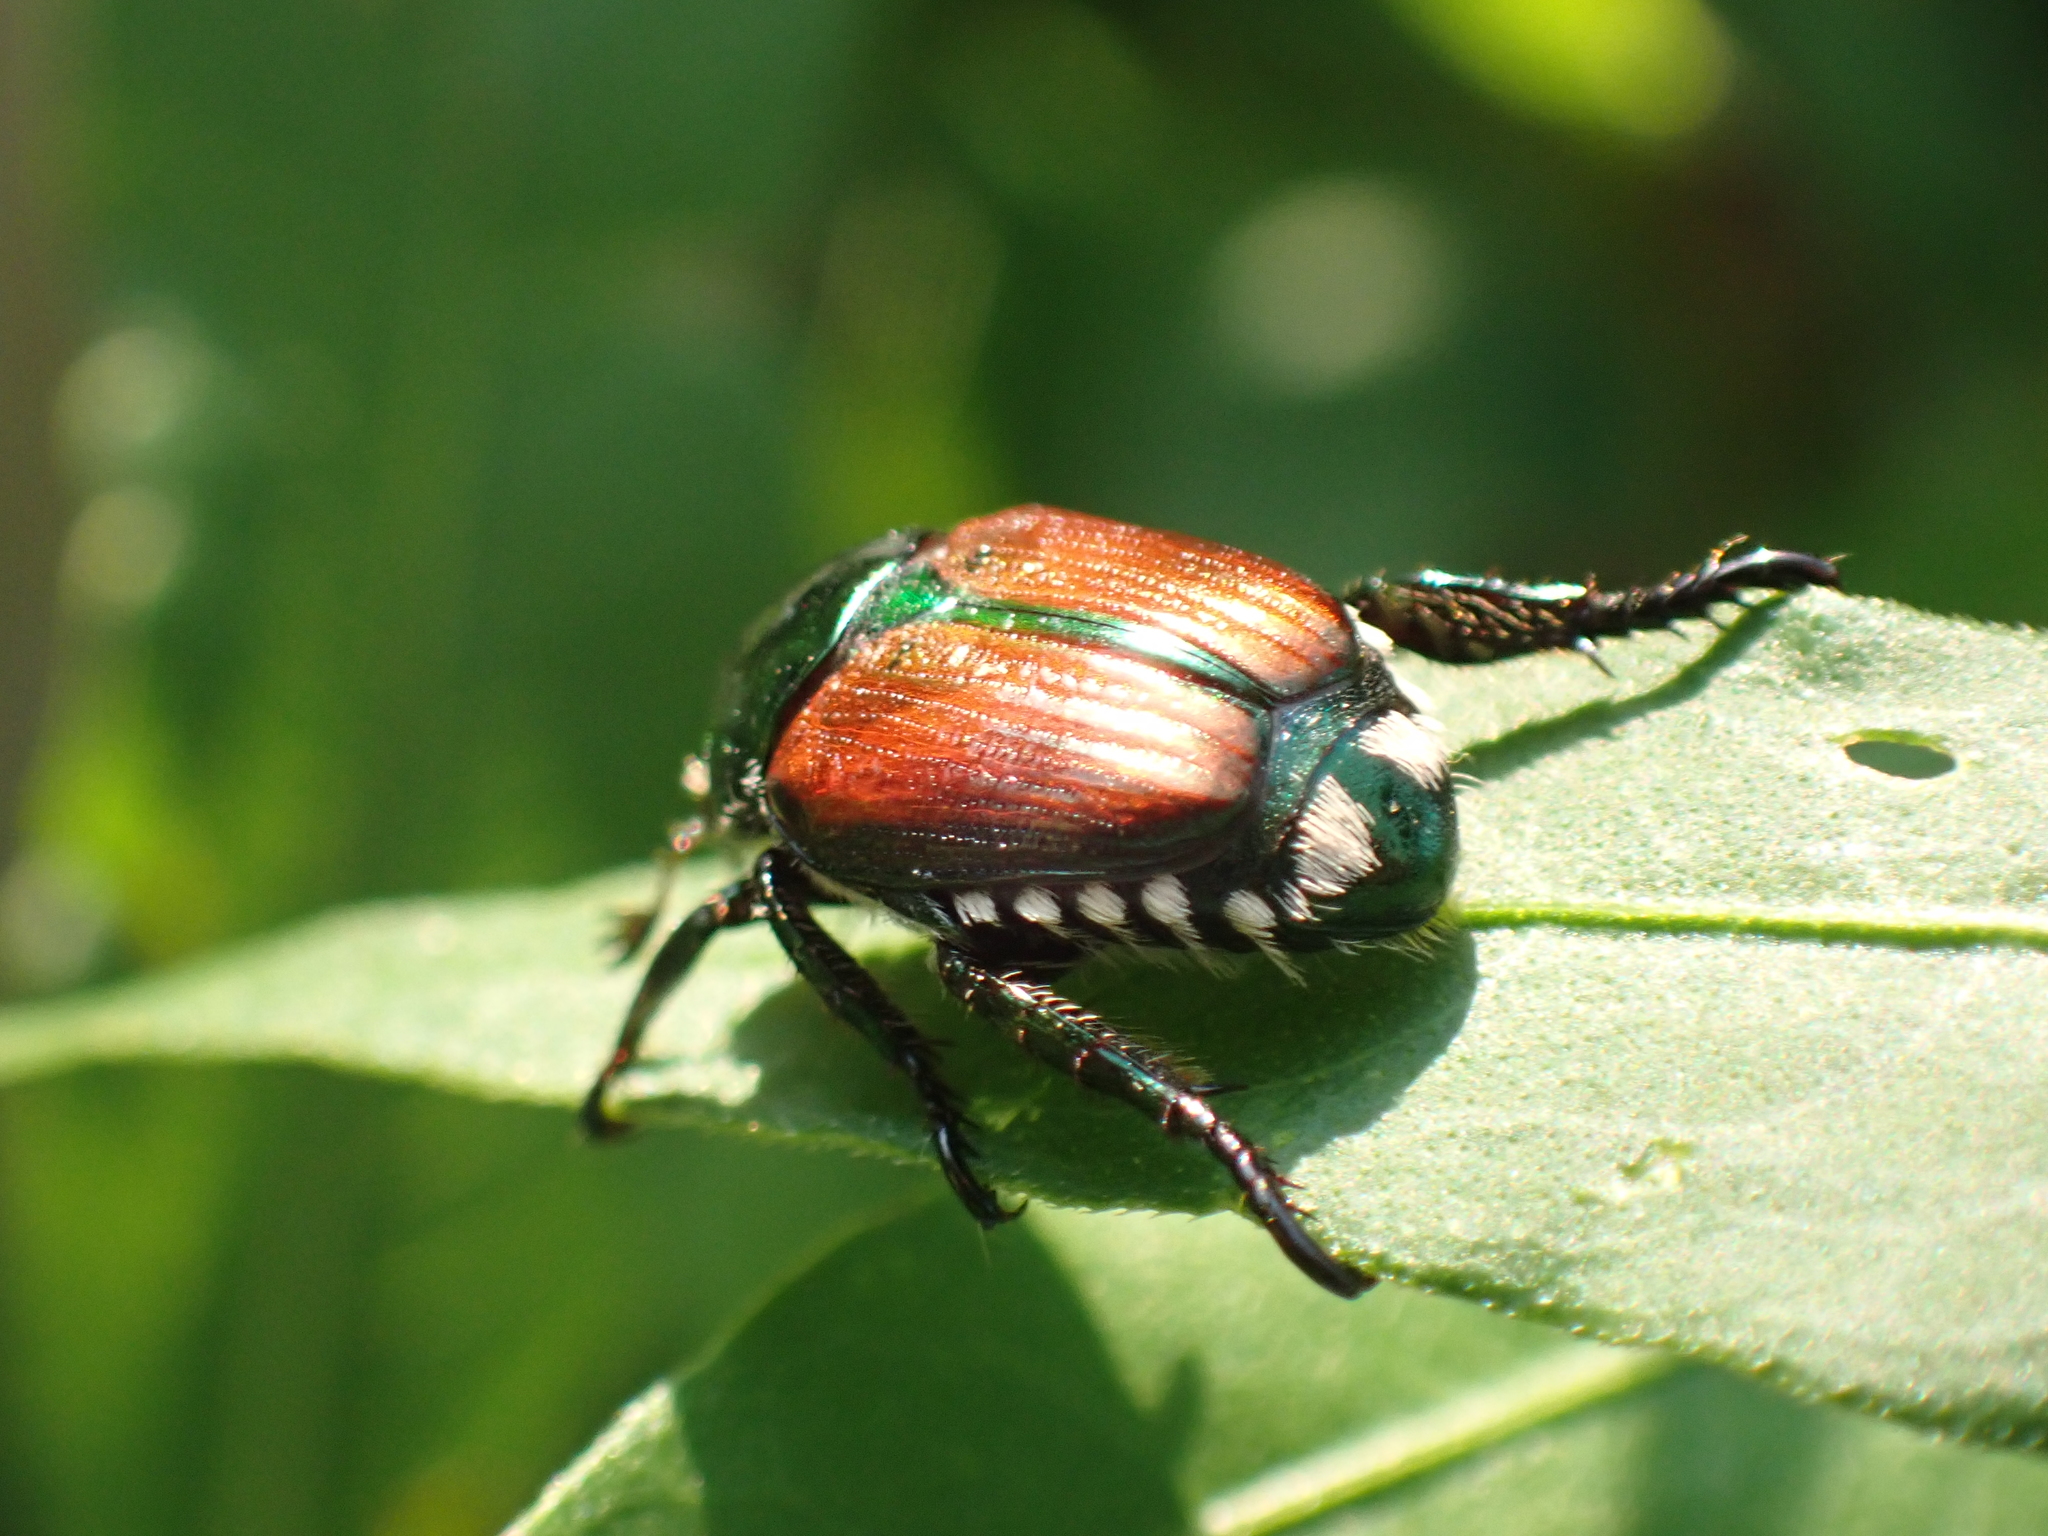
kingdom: Animalia
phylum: Arthropoda
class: Insecta
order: Coleoptera
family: Scarabaeidae
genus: Popillia
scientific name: Popillia japonica
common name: Japanese beetle
